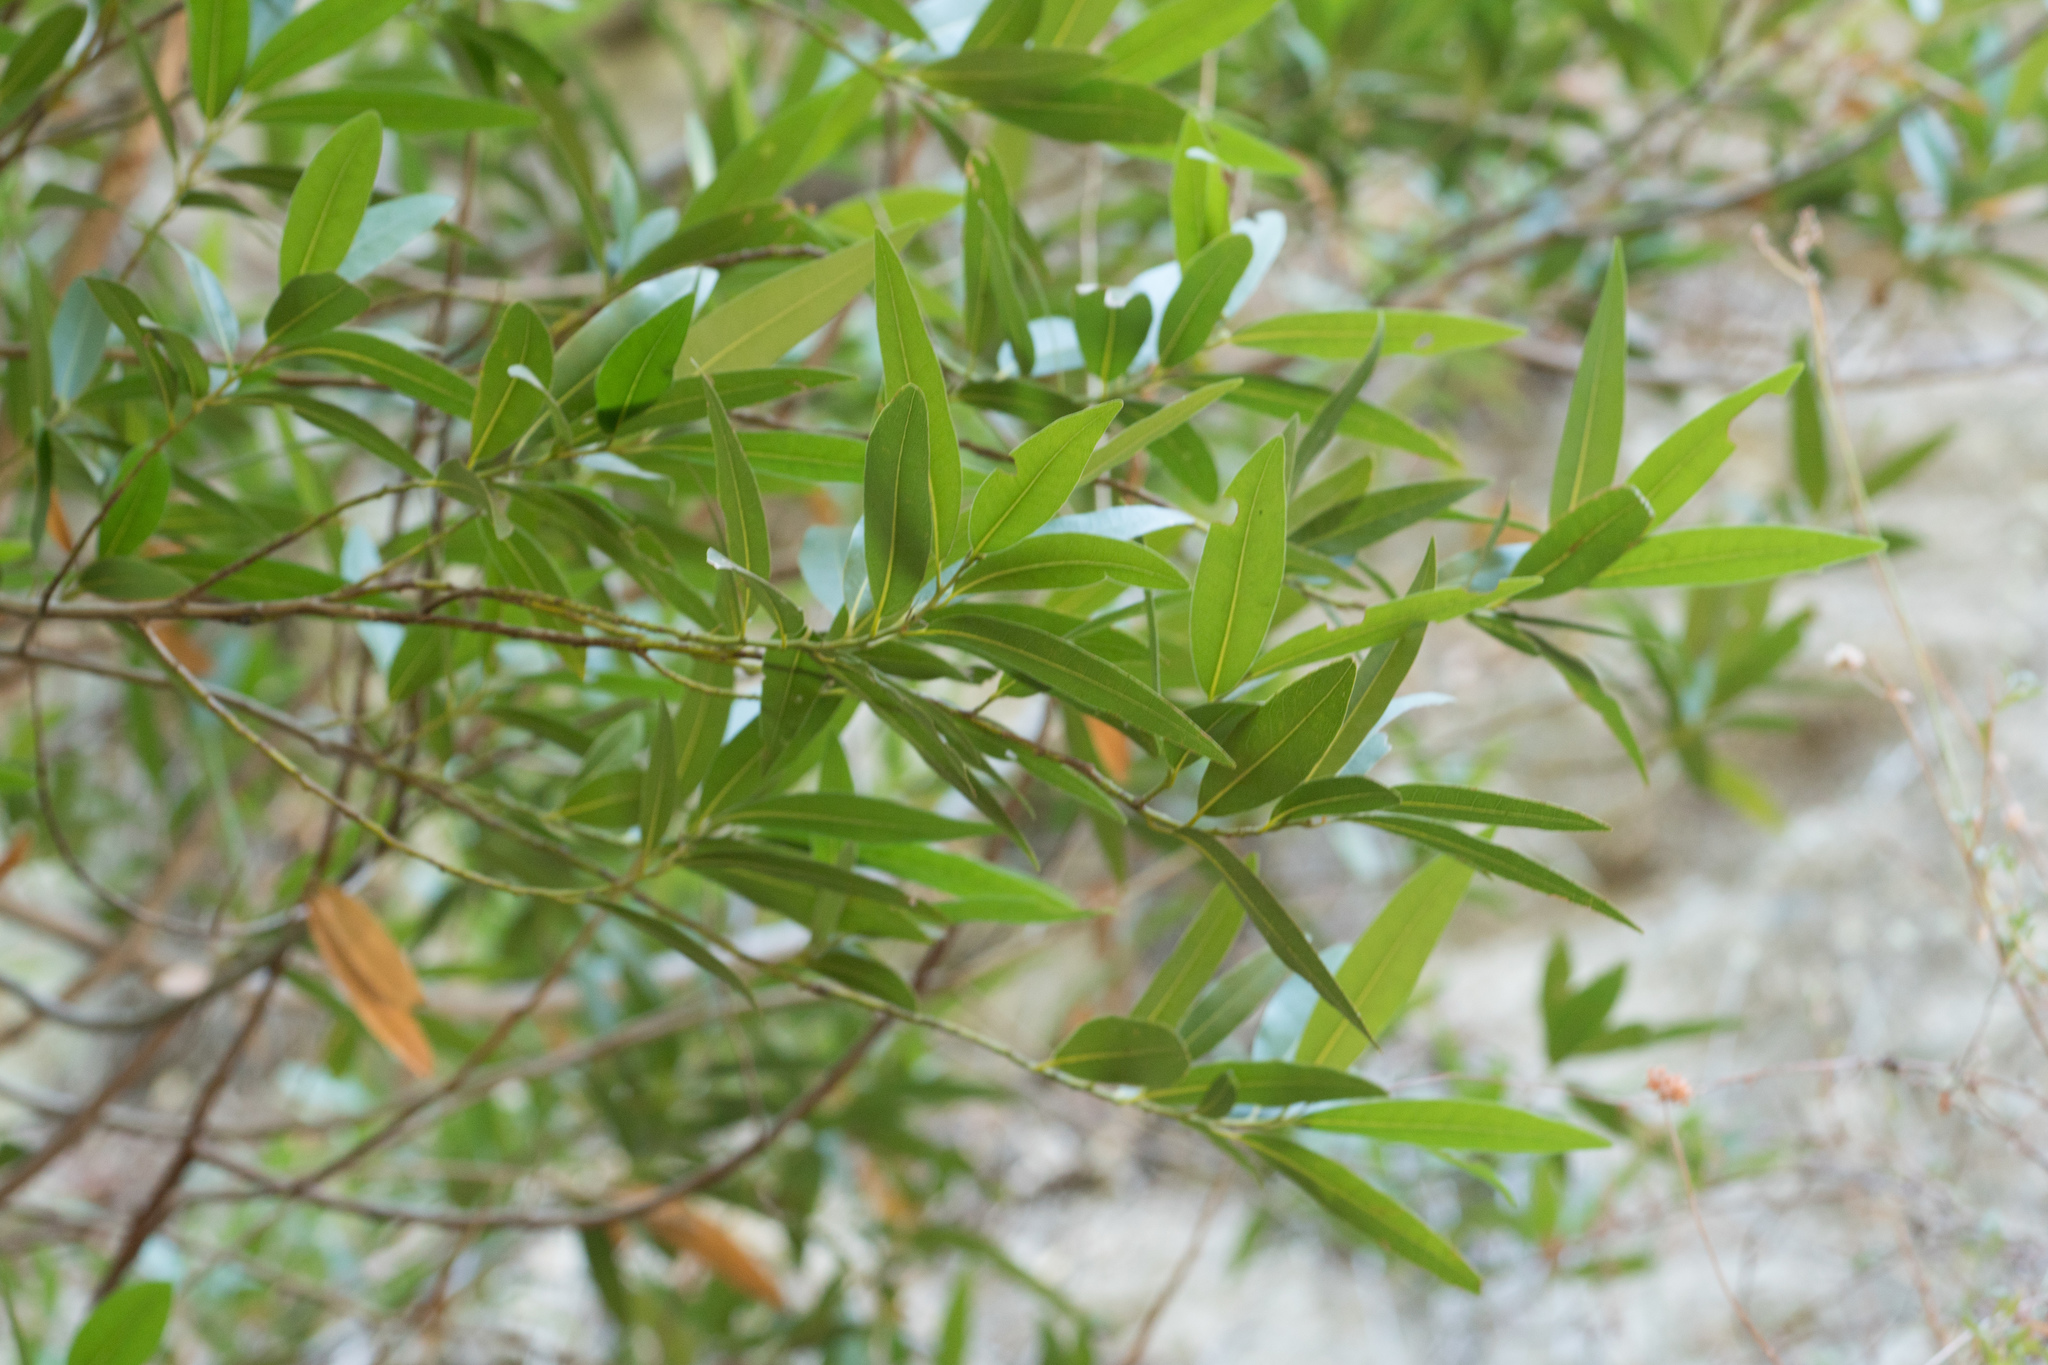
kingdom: Plantae
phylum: Tracheophyta
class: Magnoliopsida
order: Laurales
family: Lauraceae
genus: Umbellularia
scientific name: Umbellularia californica
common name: California bay
